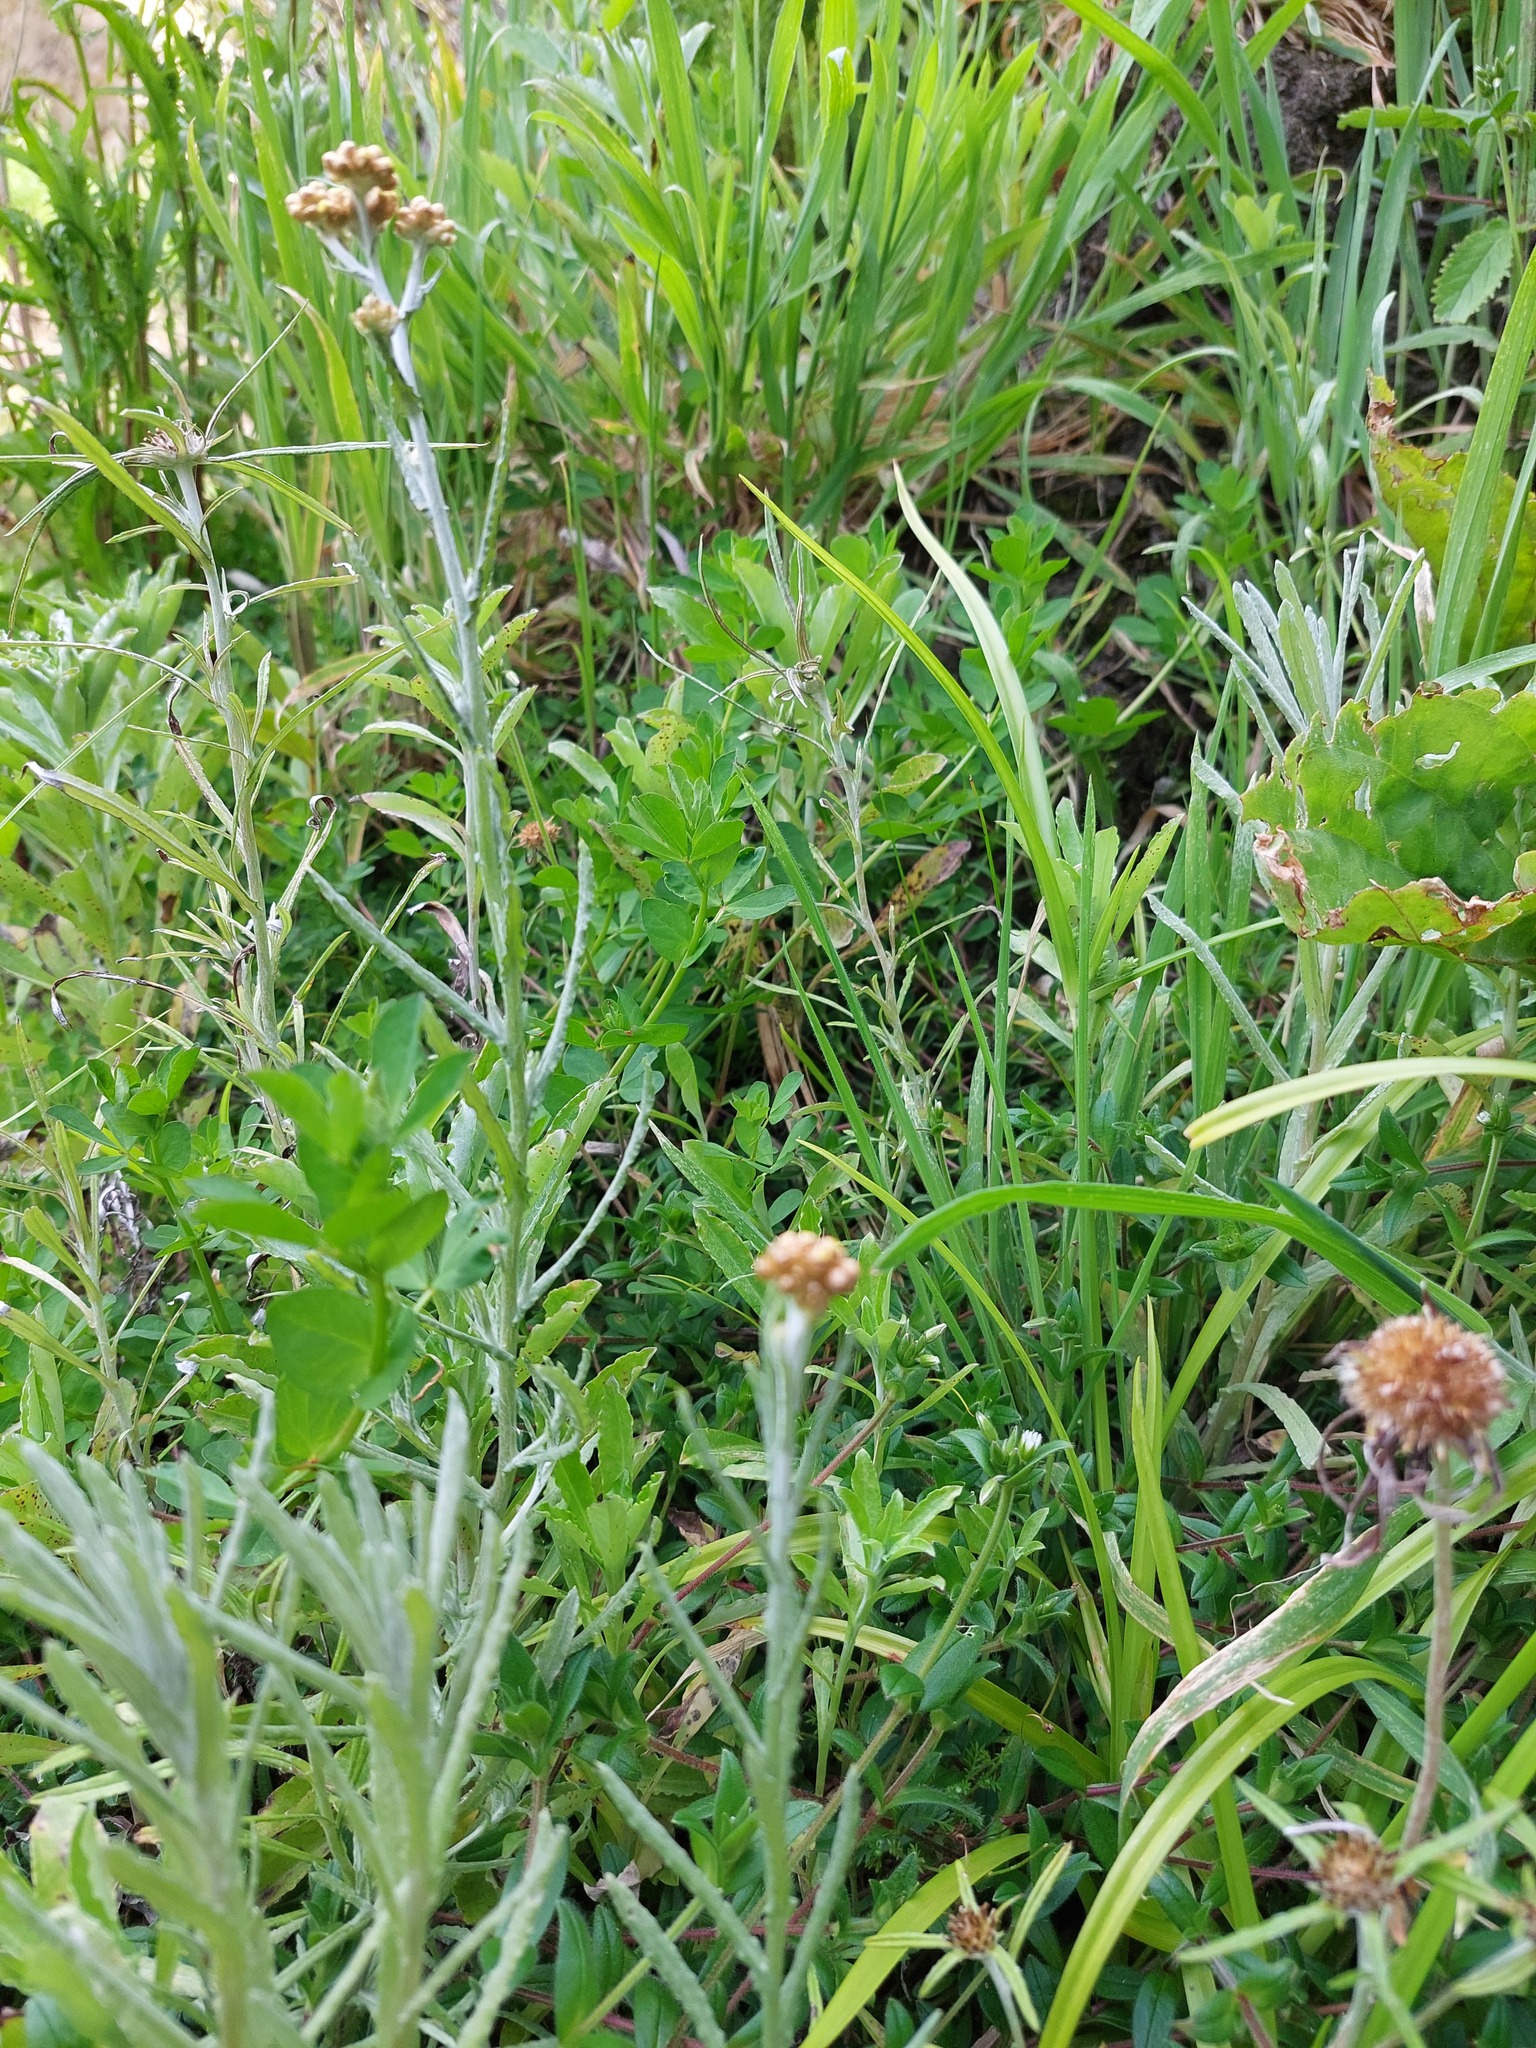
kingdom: Plantae
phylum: Tracheophyta
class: Magnoliopsida
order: Asterales
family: Asteraceae
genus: Helichrysum
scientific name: Helichrysum luteoalbum
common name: Daisy
